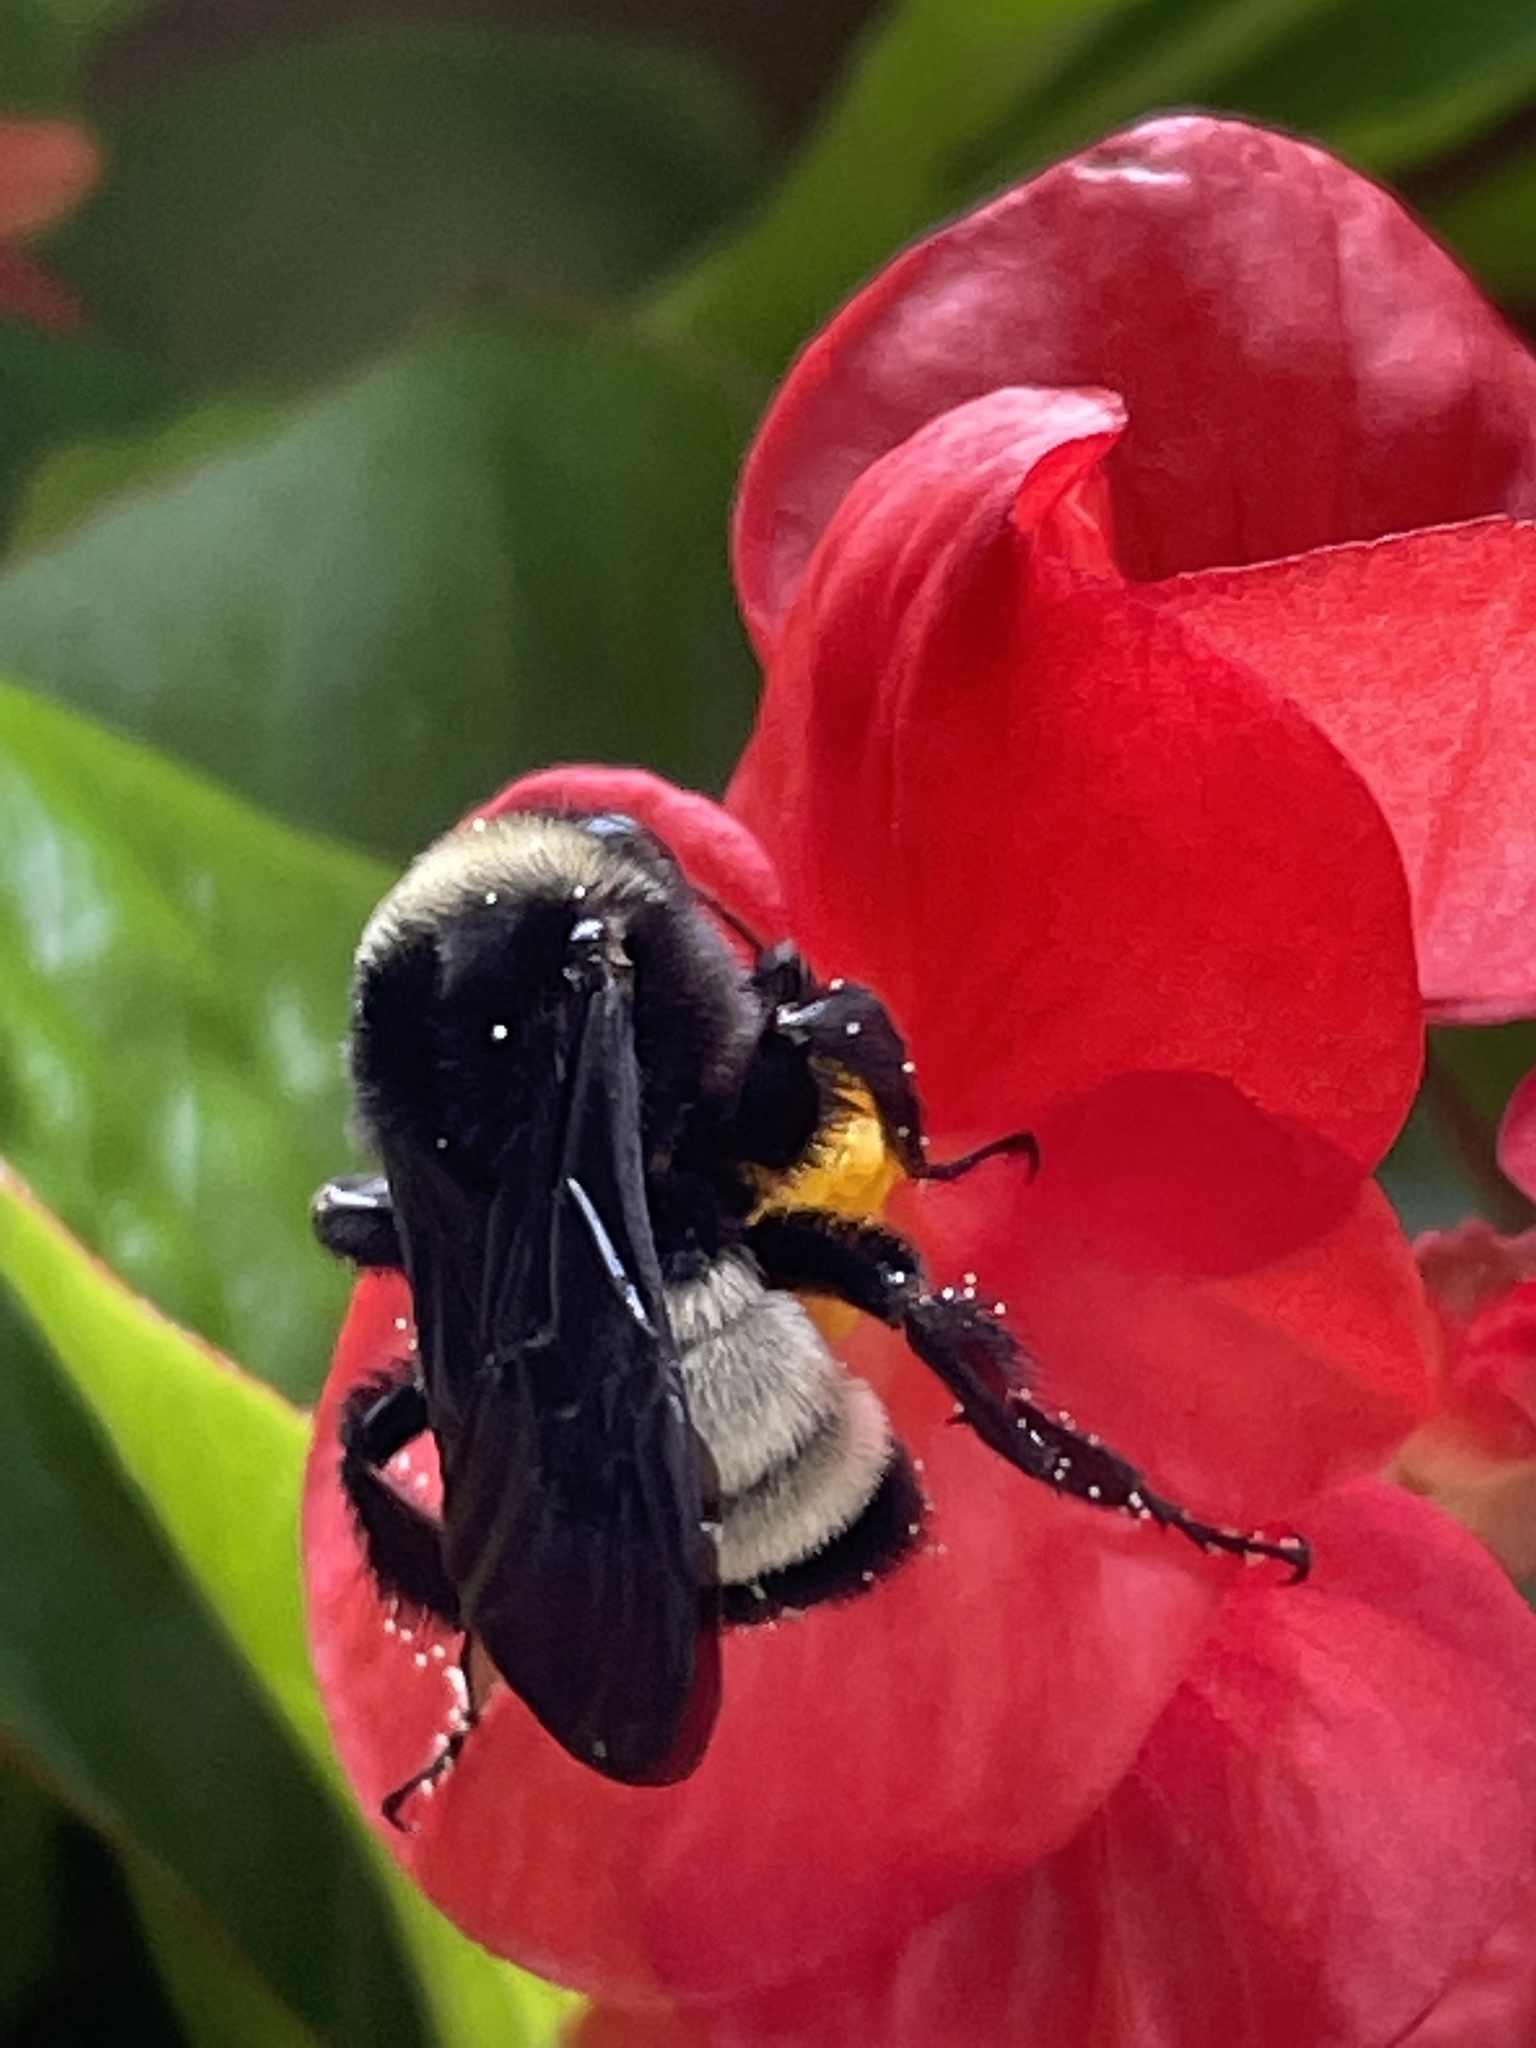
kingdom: Animalia
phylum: Arthropoda
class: Insecta
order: Hymenoptera
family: Apidae
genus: Bombus
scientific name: Bombus pensylvanicus
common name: Bumble bee
